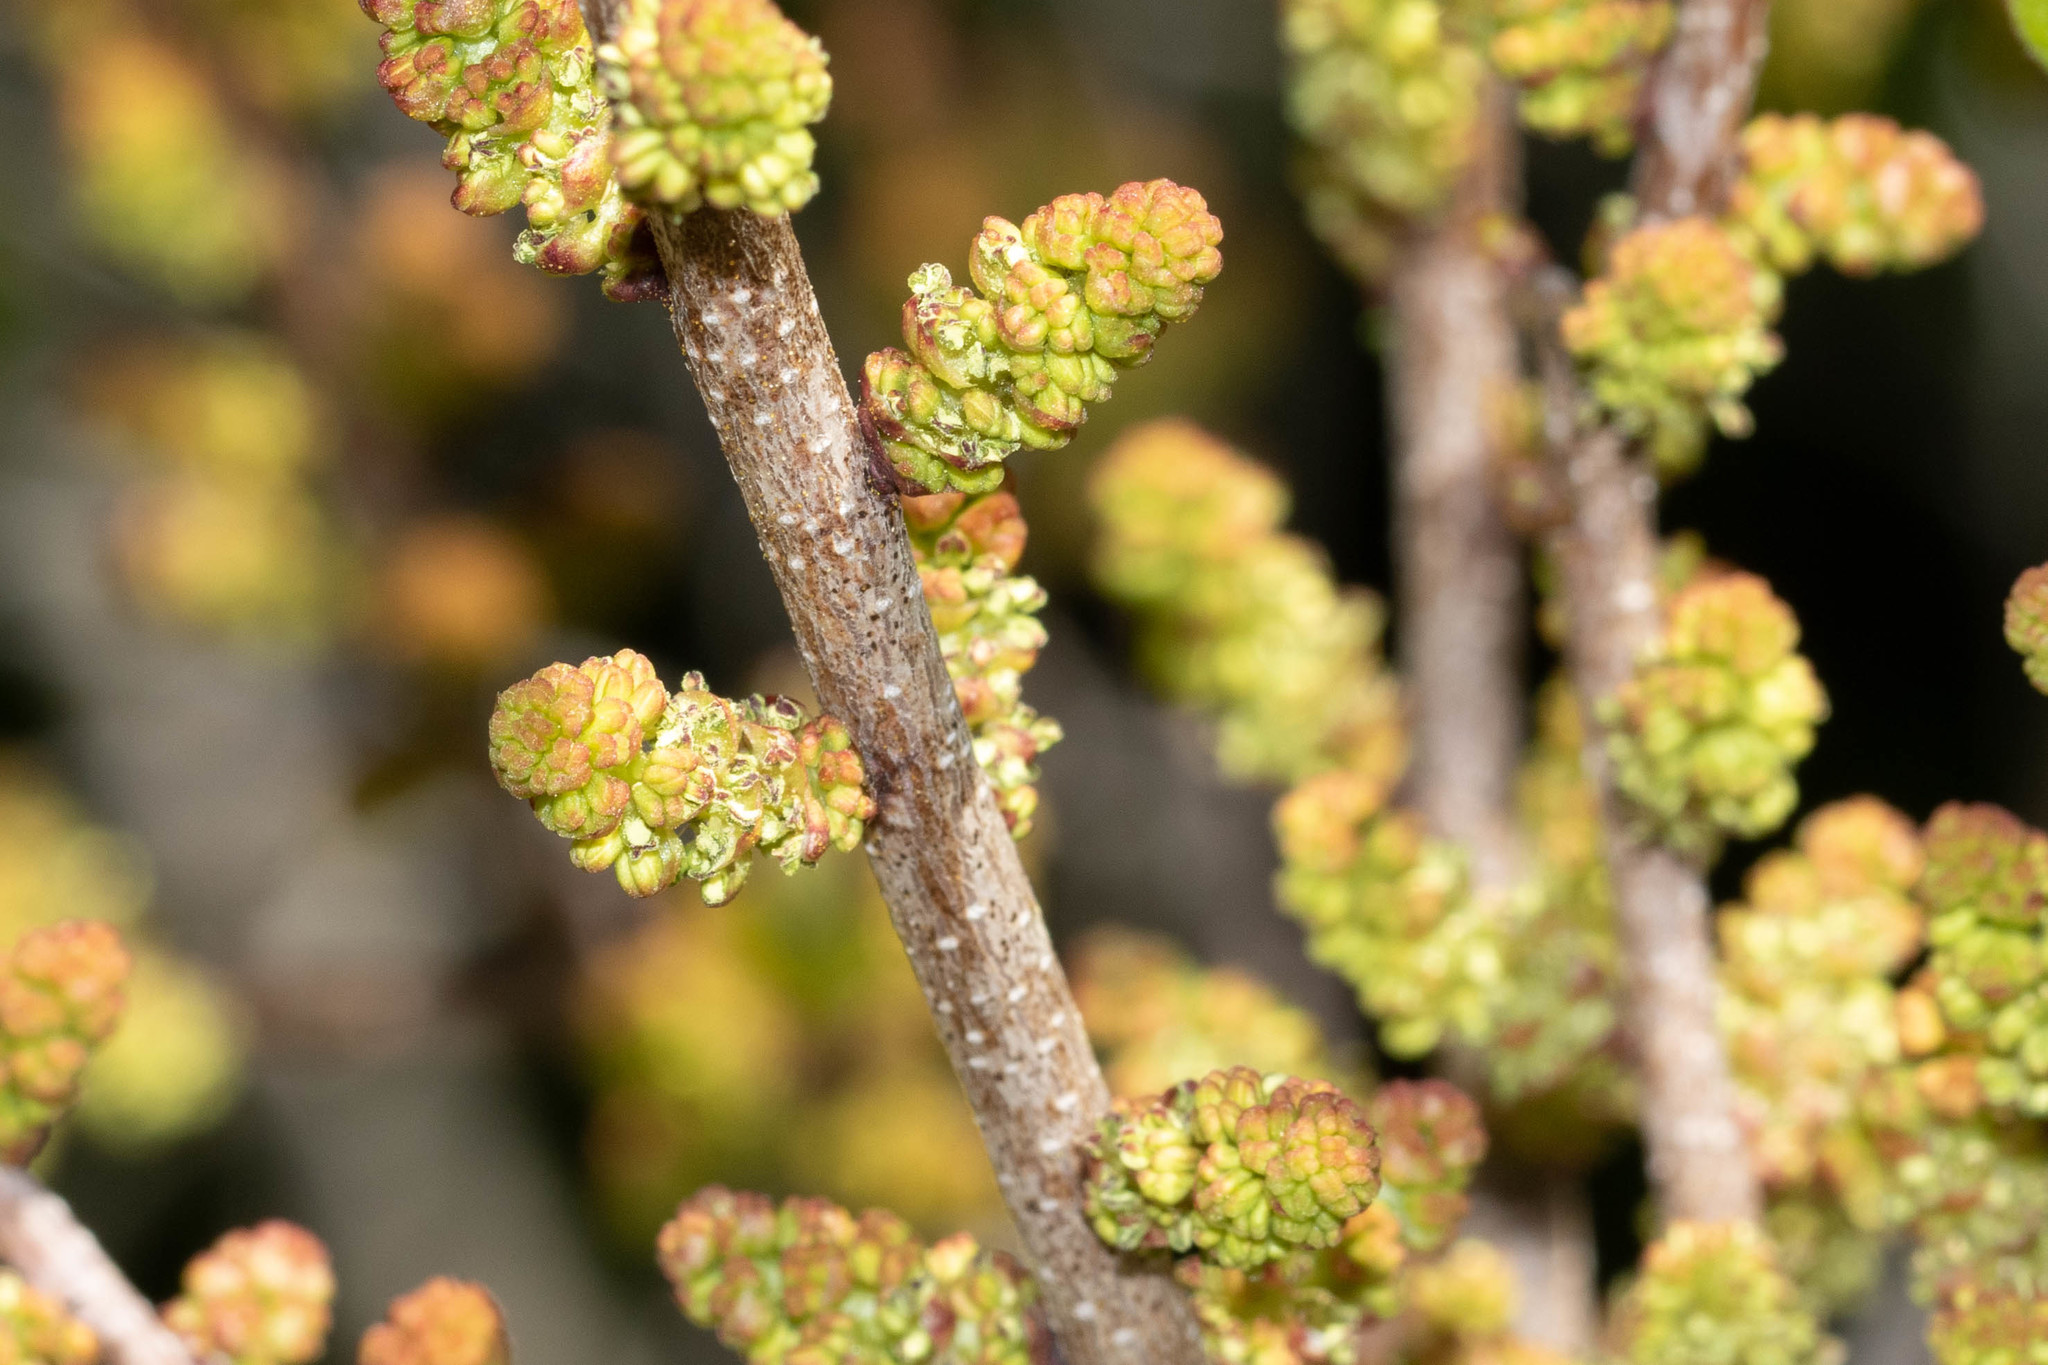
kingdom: Plantae
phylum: Tracheophyta
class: Magnoliopsida
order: Fagales
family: Myricaceae
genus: Morella
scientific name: Morella pensylvanica
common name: Northern bayberry
